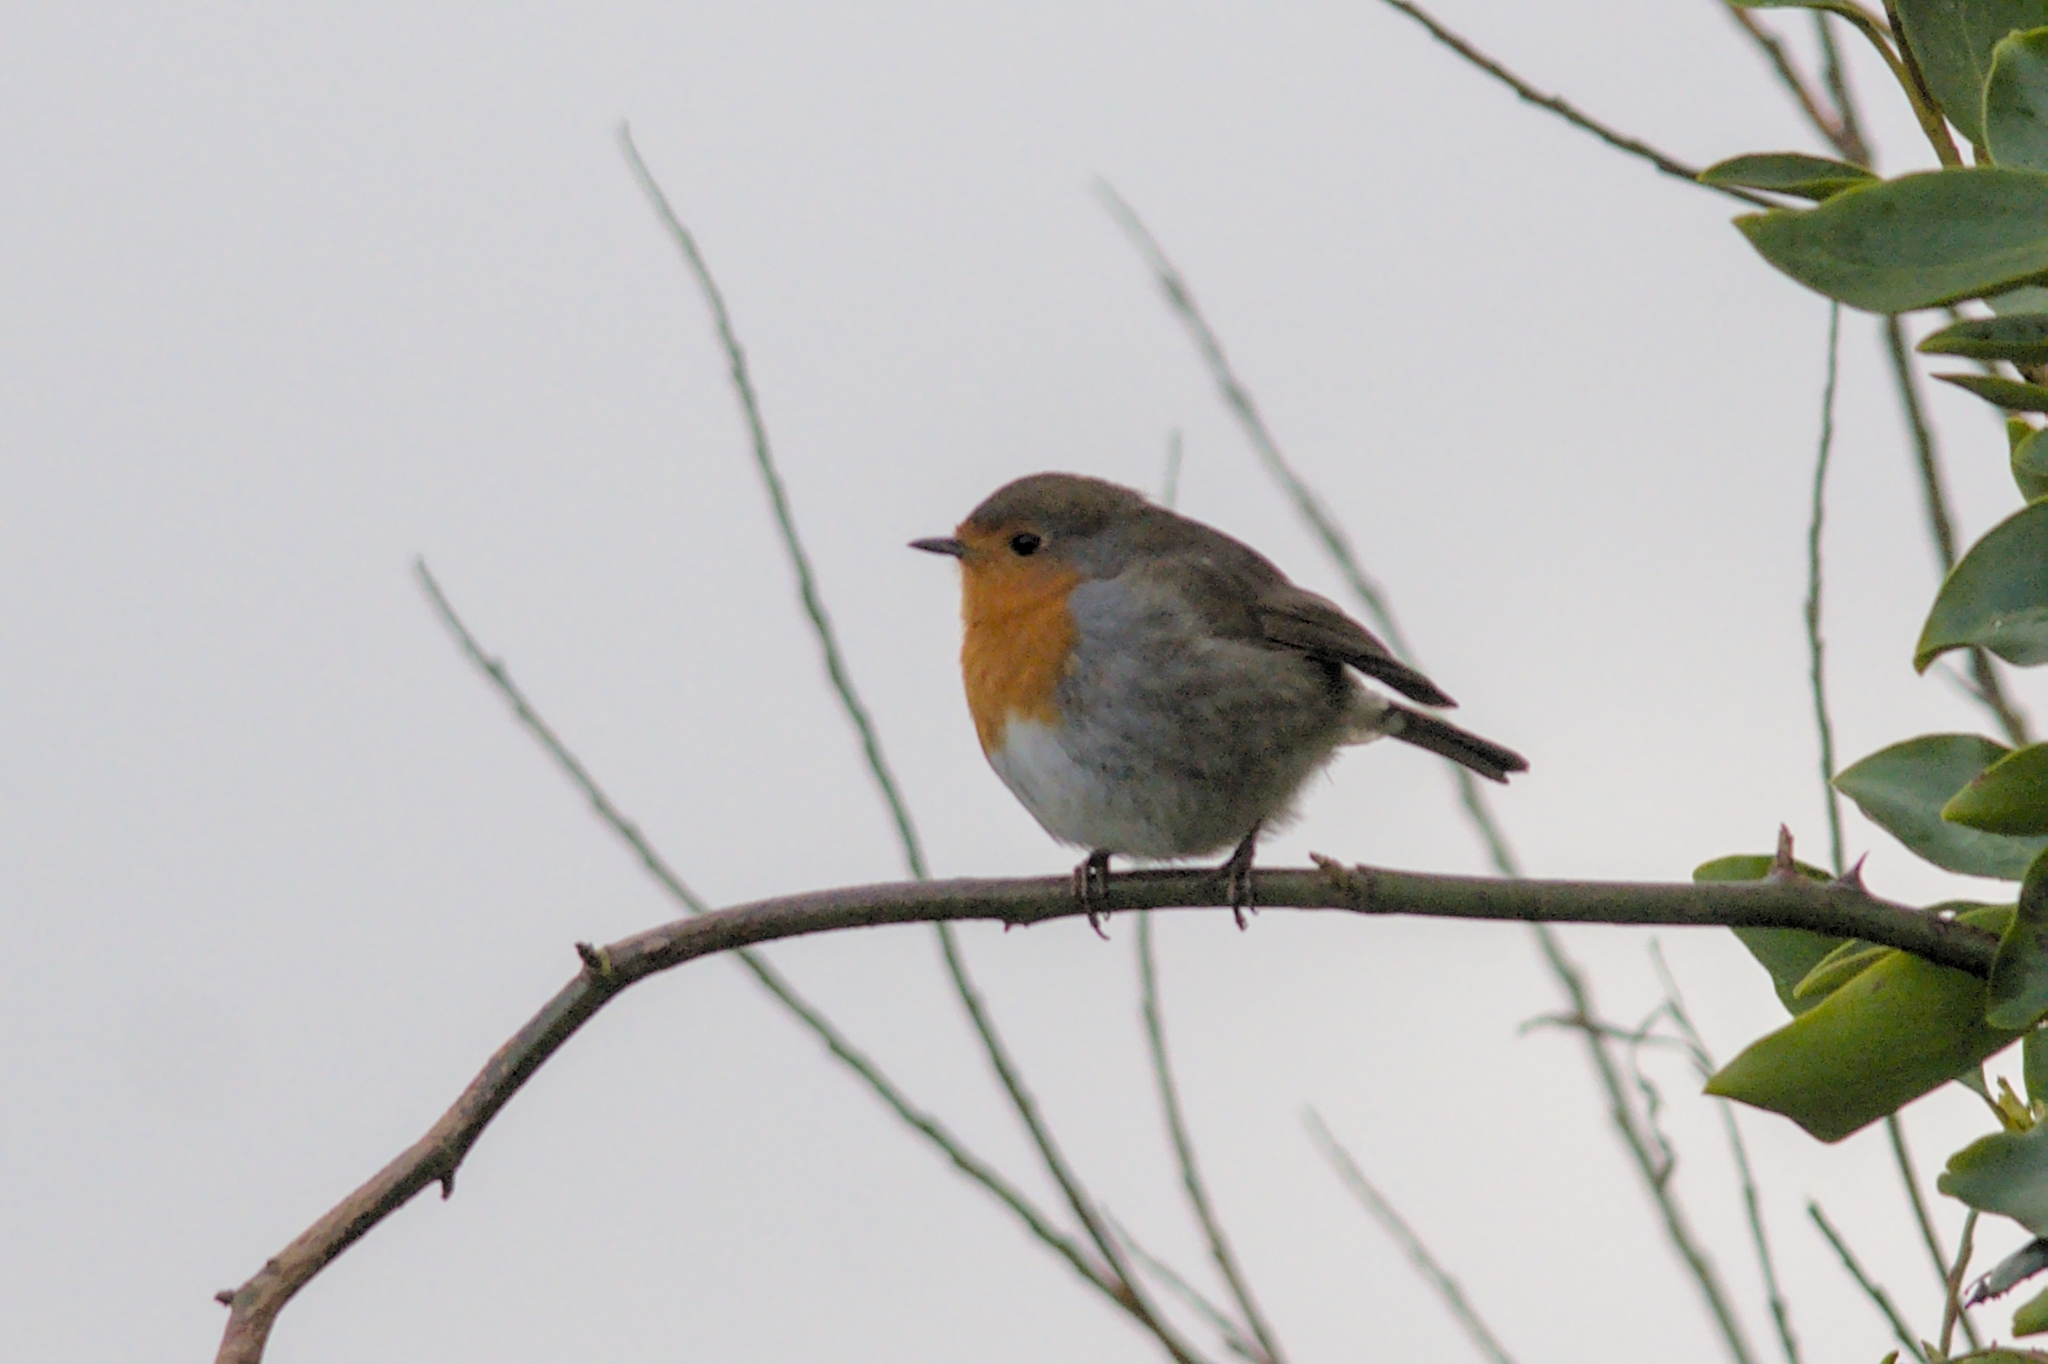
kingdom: Animalia
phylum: Chordata
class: Aves
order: Passeriformes
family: Muscicapidae
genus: Erithacus
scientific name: Erithacus rubecula
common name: European robin
